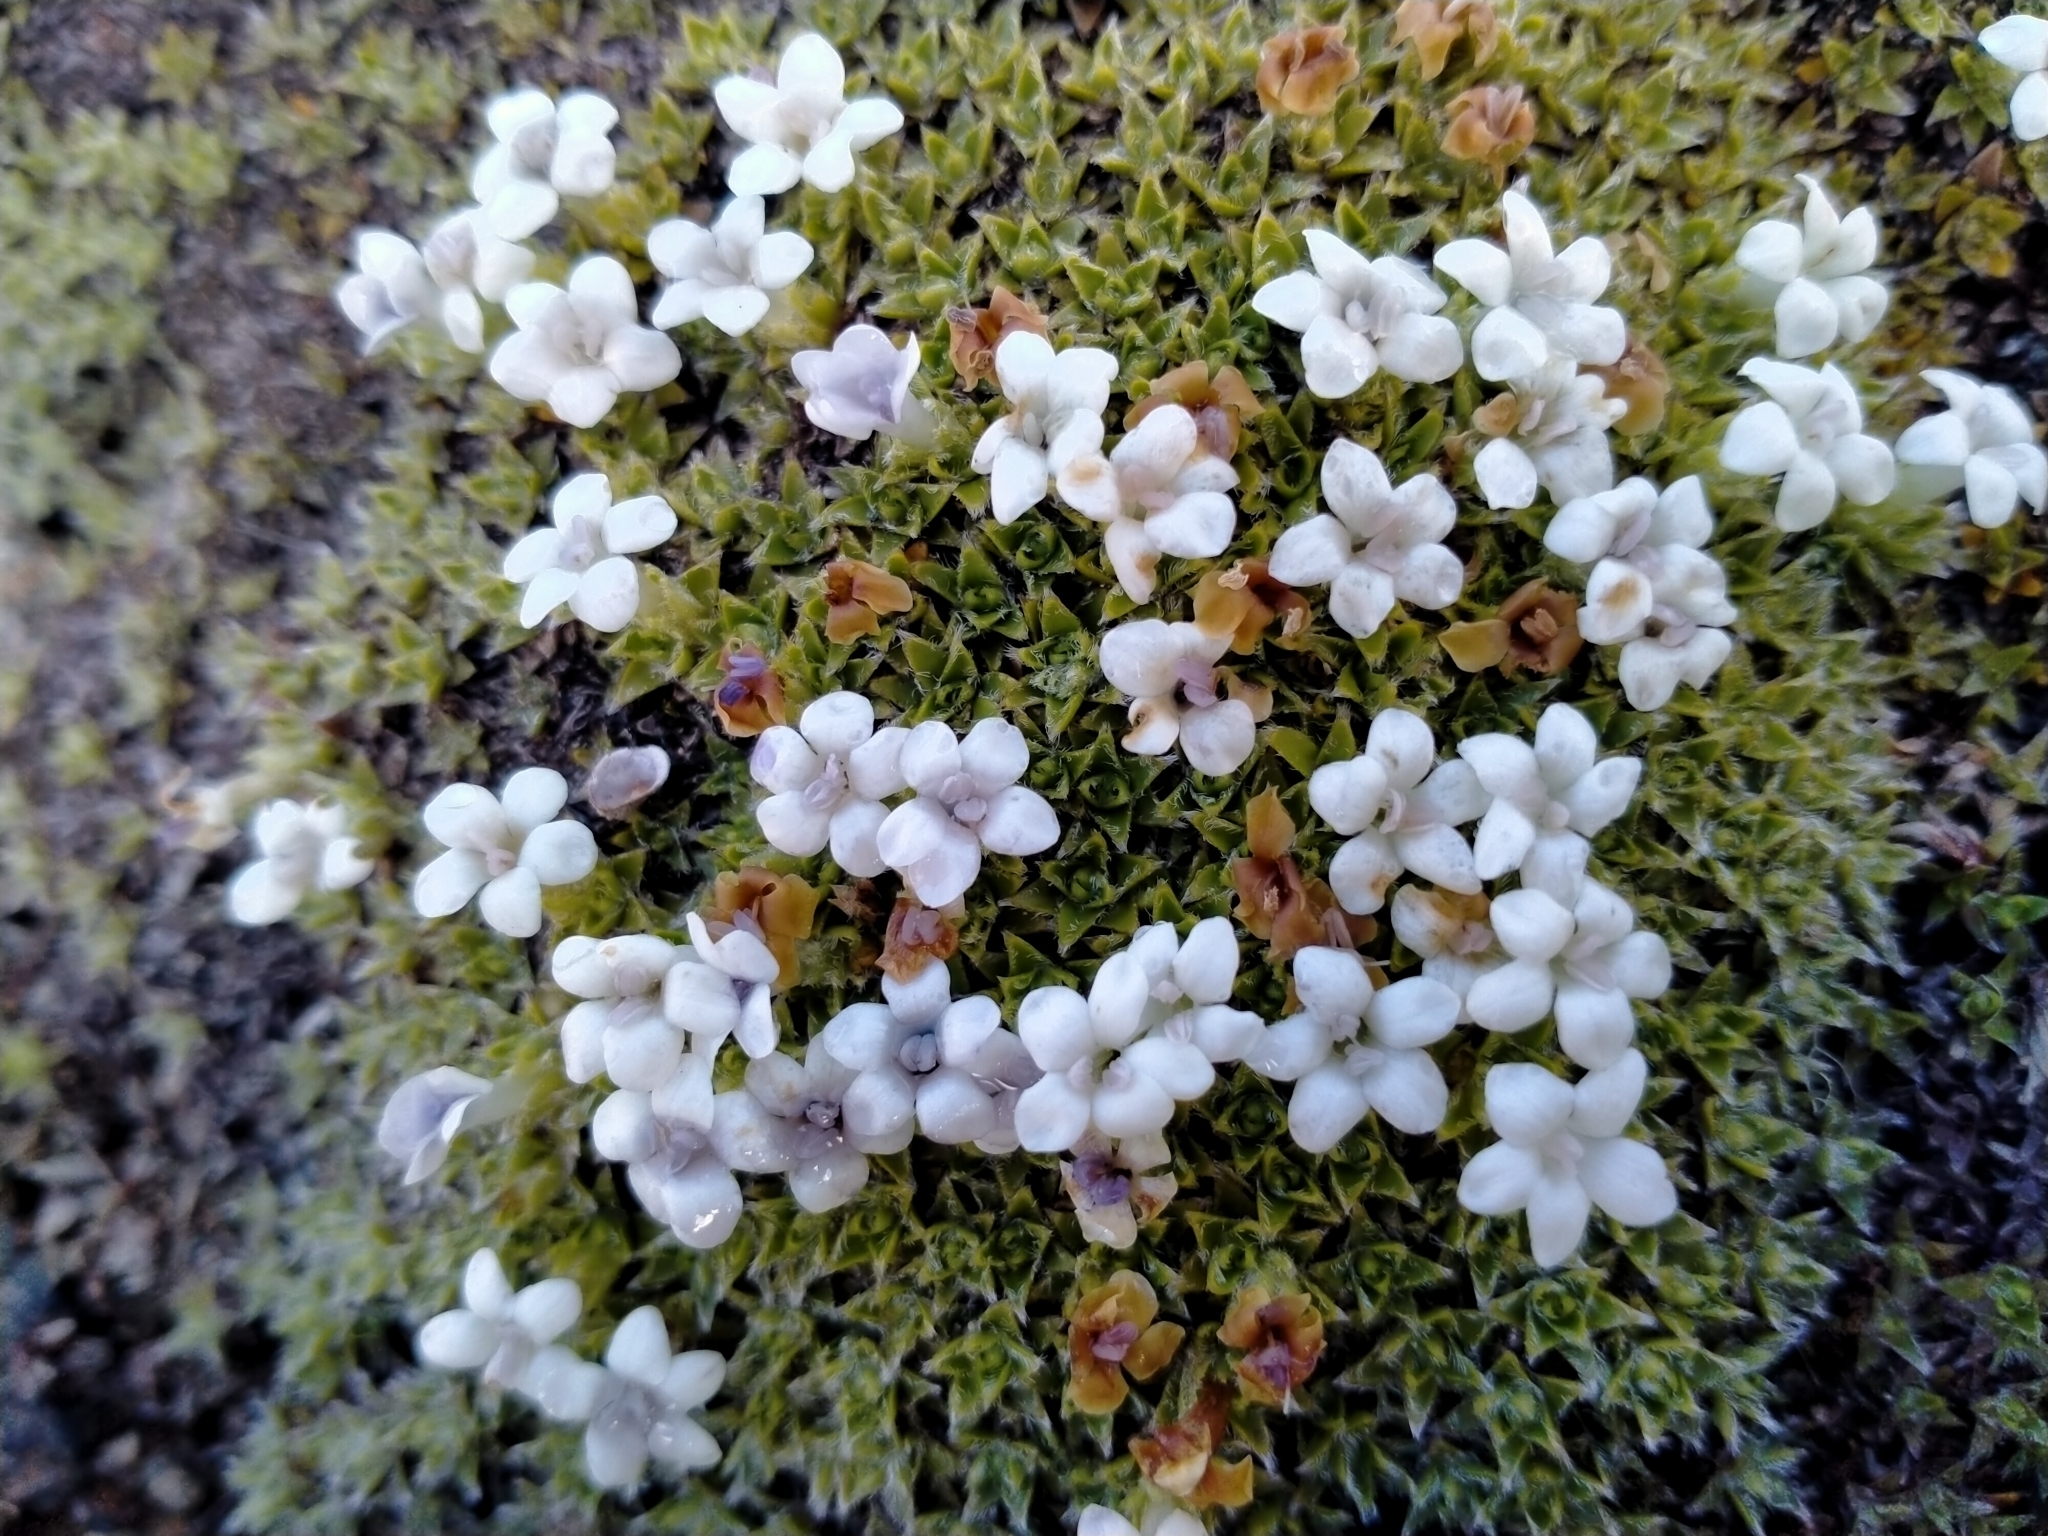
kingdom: Plantae
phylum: Tracheophyta
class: Magnoliopsida
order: Lamiales
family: Plantaginaceae
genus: Veronica
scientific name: Veronica ciliolata
